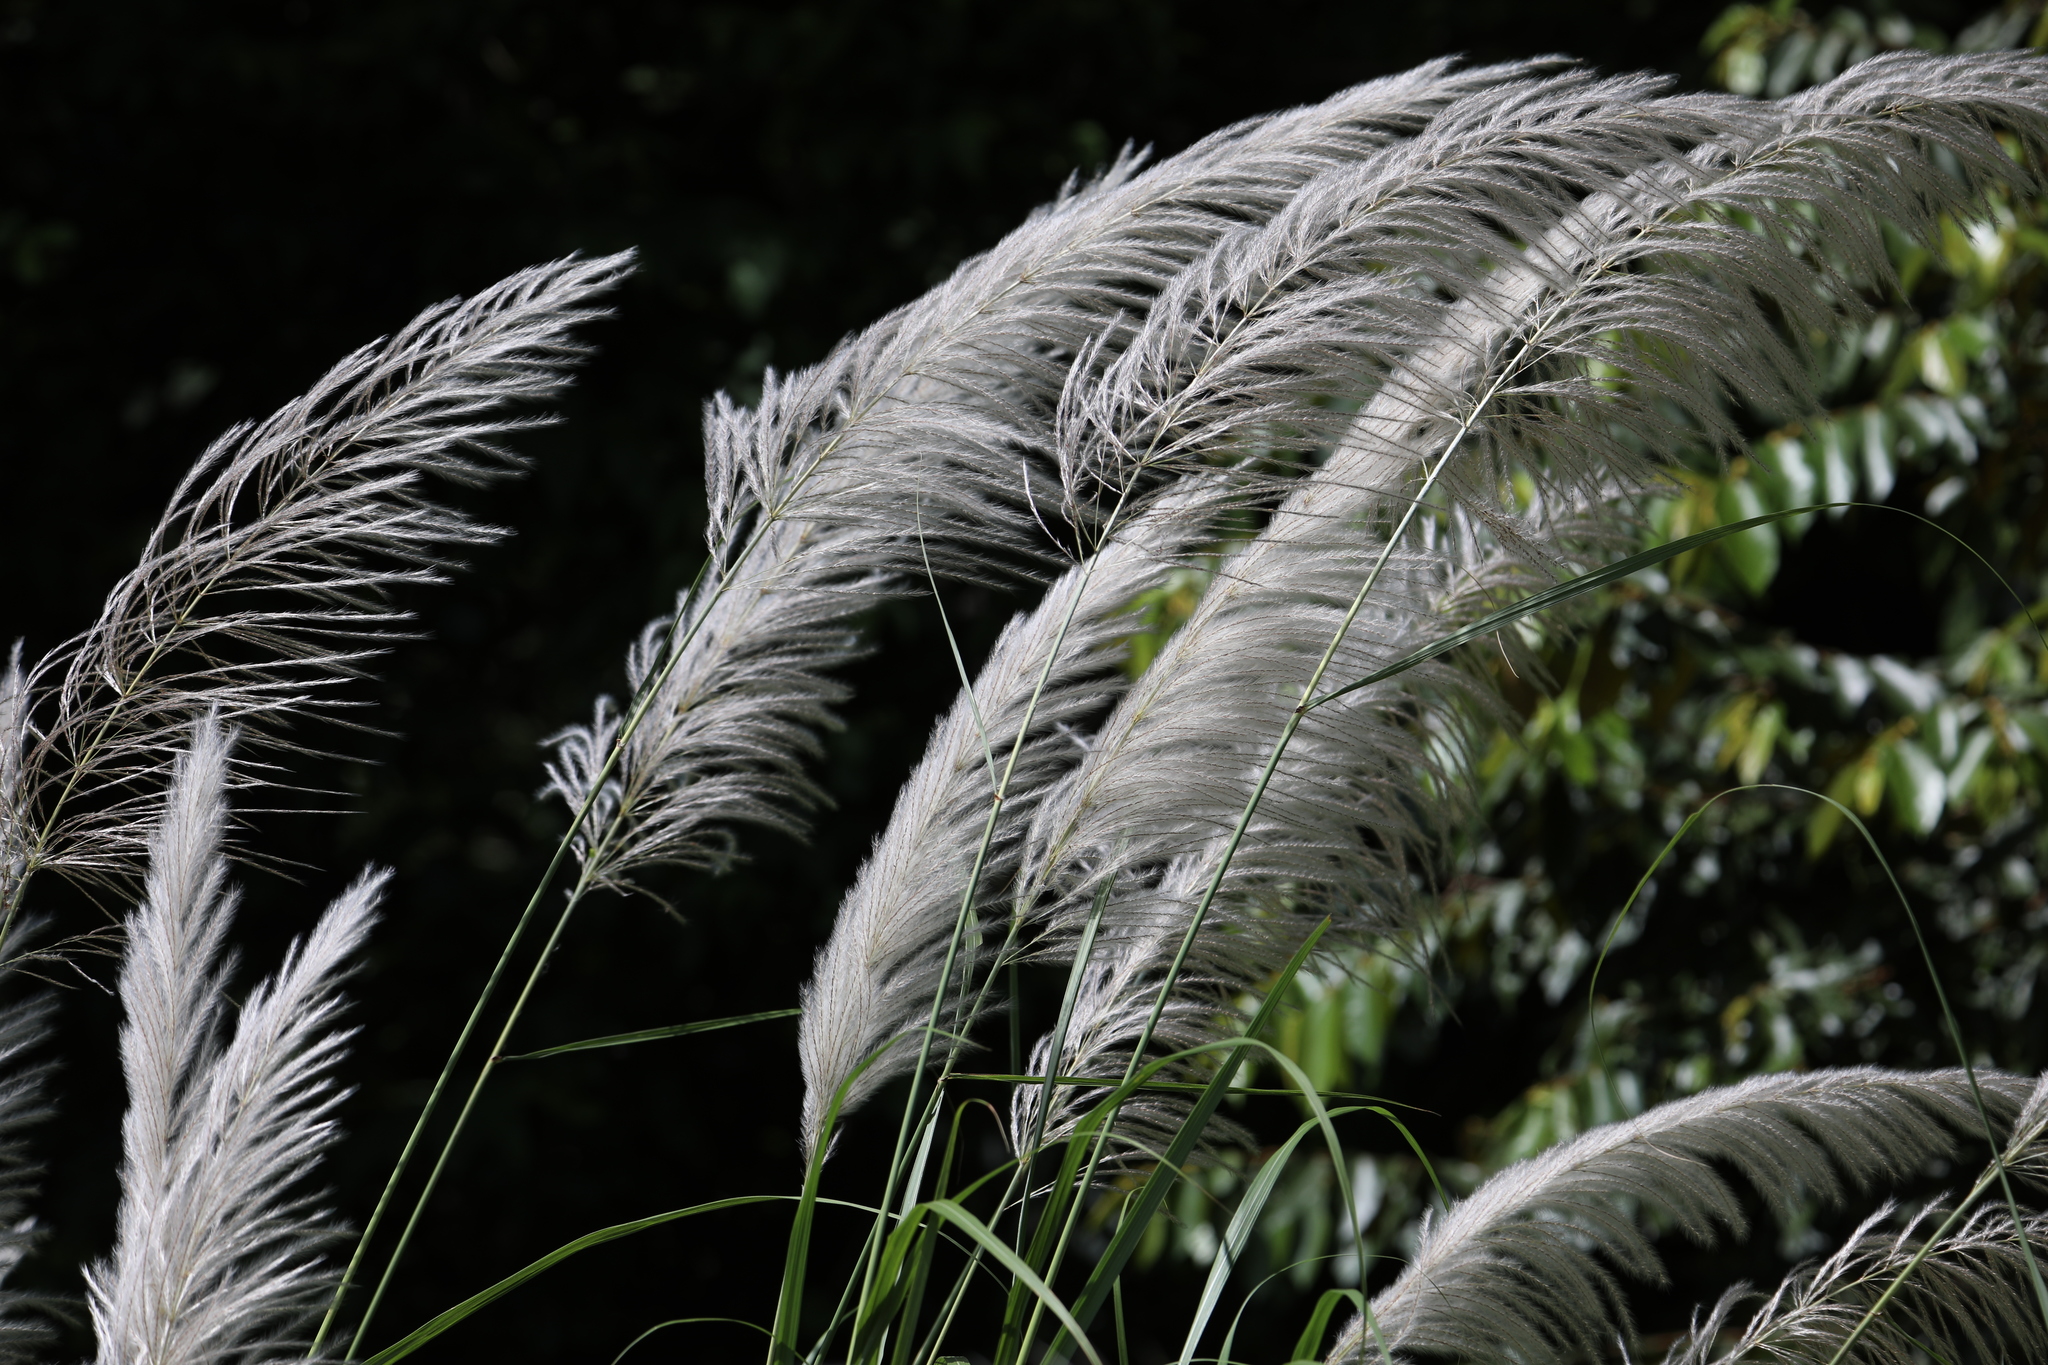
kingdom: Plantae
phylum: Tracheophyta
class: Liliopsida
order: Poales
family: Poaceae
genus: Saccharum
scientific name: Saccharum spontaneum
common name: Wild sugarcane
